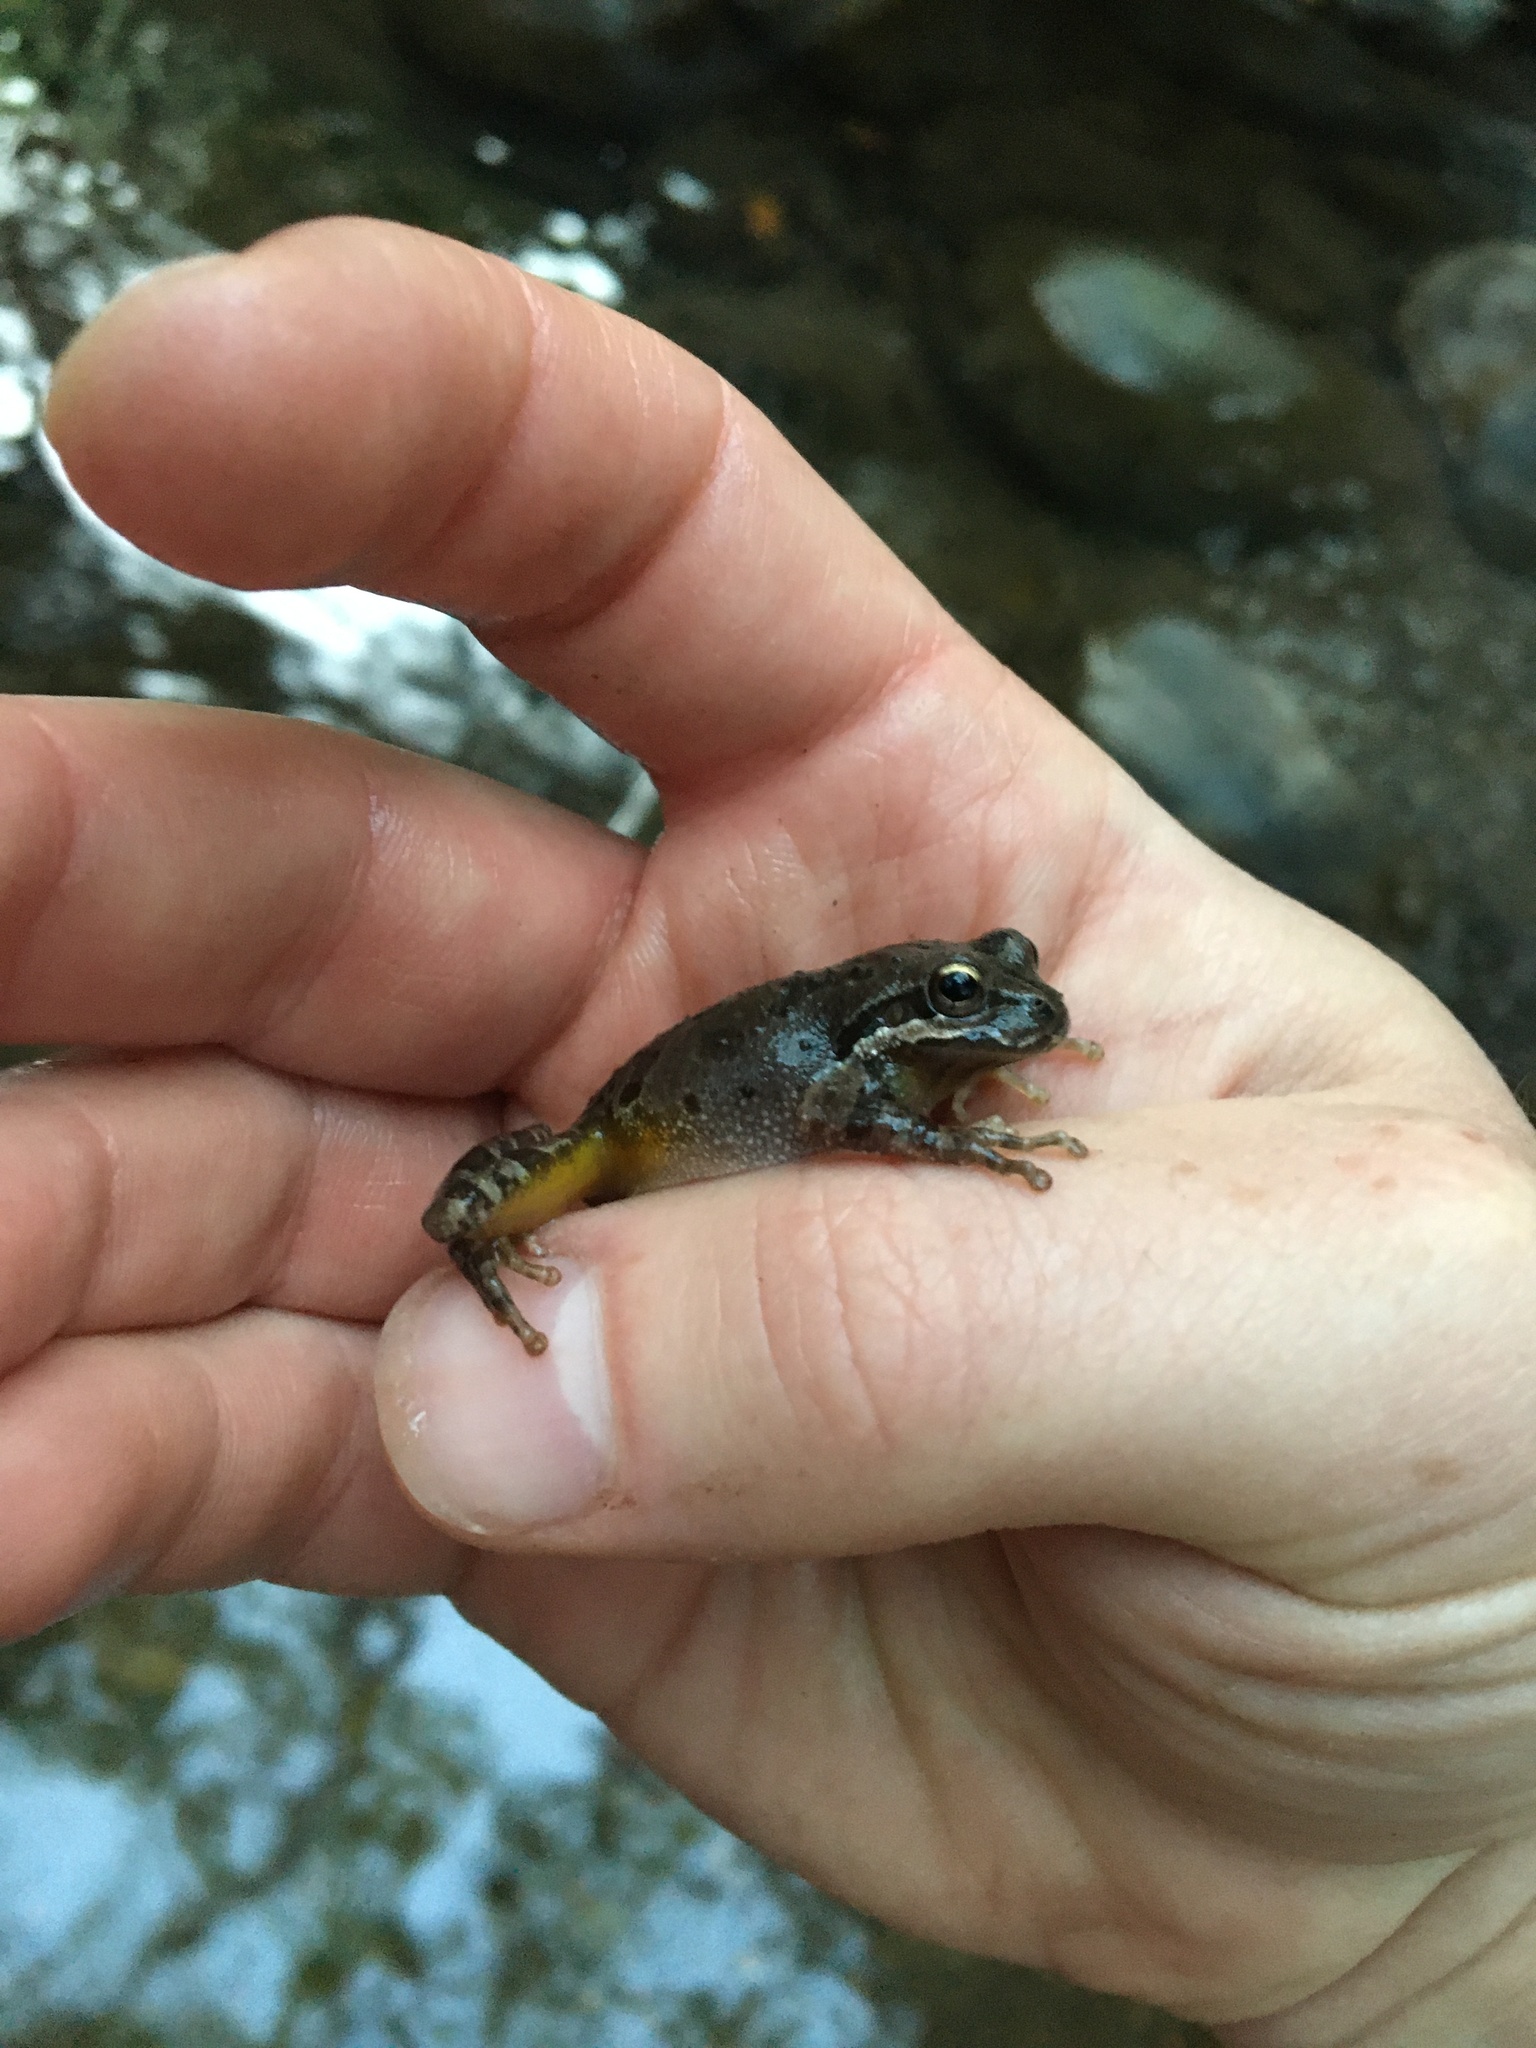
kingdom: Animalia
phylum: Chordata
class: Amphibia
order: Anura
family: Hylidae
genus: Pseudacris
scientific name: Pseudacris regilla
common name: Pacific chorus frog
